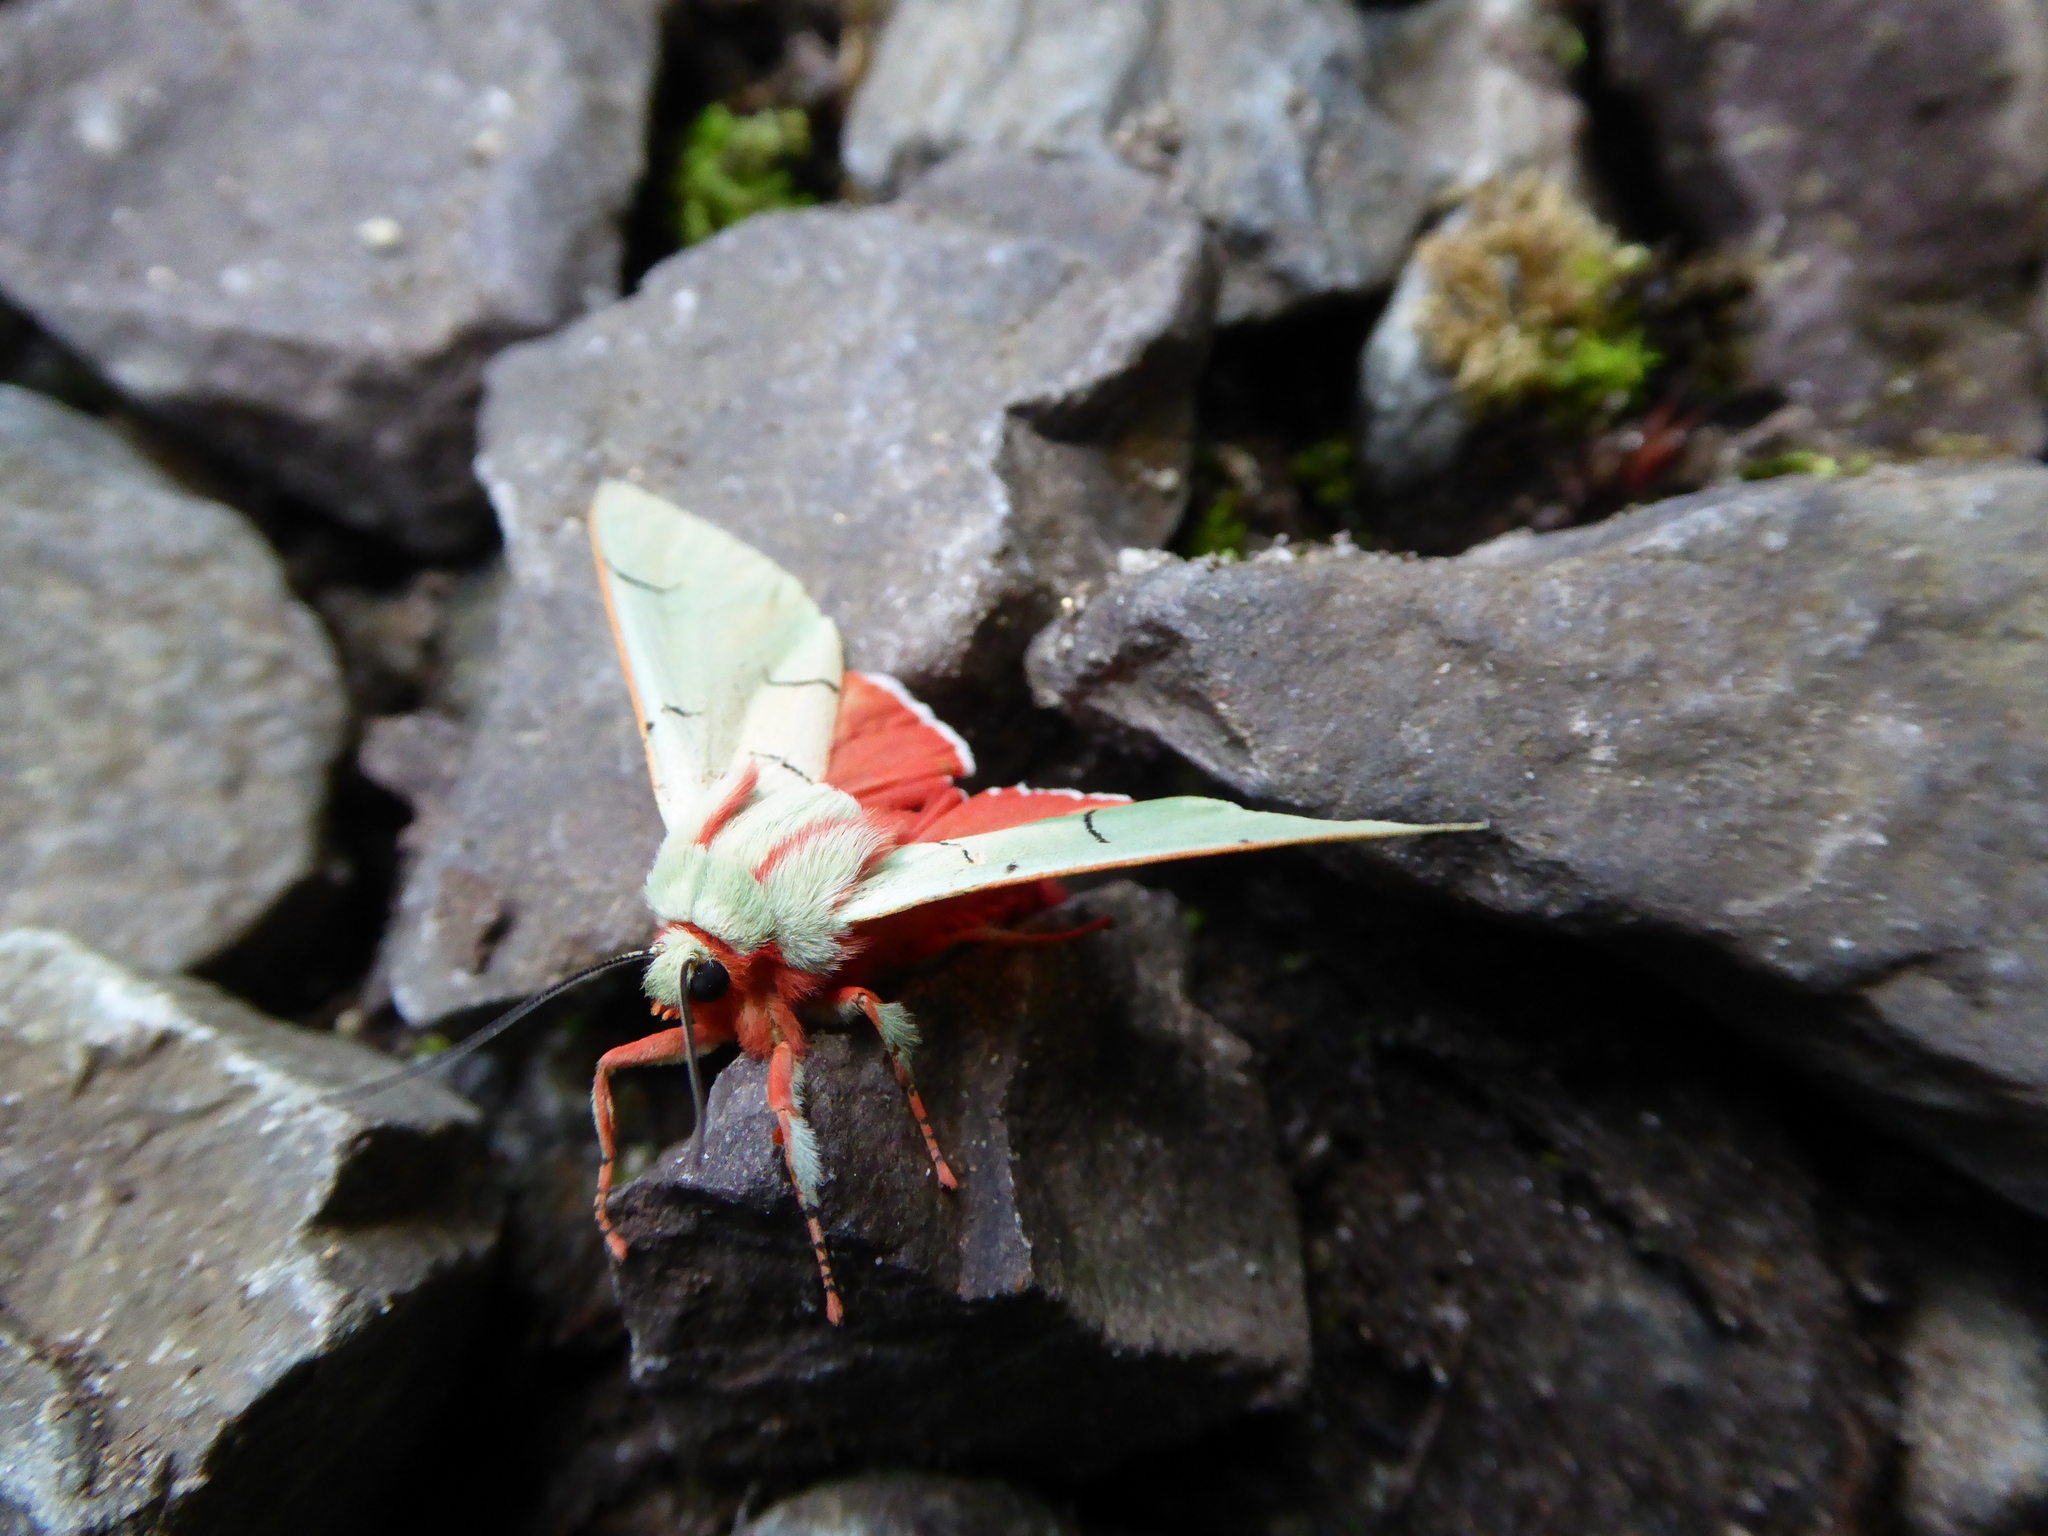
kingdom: Animalia
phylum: Arthropoda
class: Insecta
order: Lepidoptera
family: Erebidae
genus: Chlorhoda
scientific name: Chlorhoda thoracica
